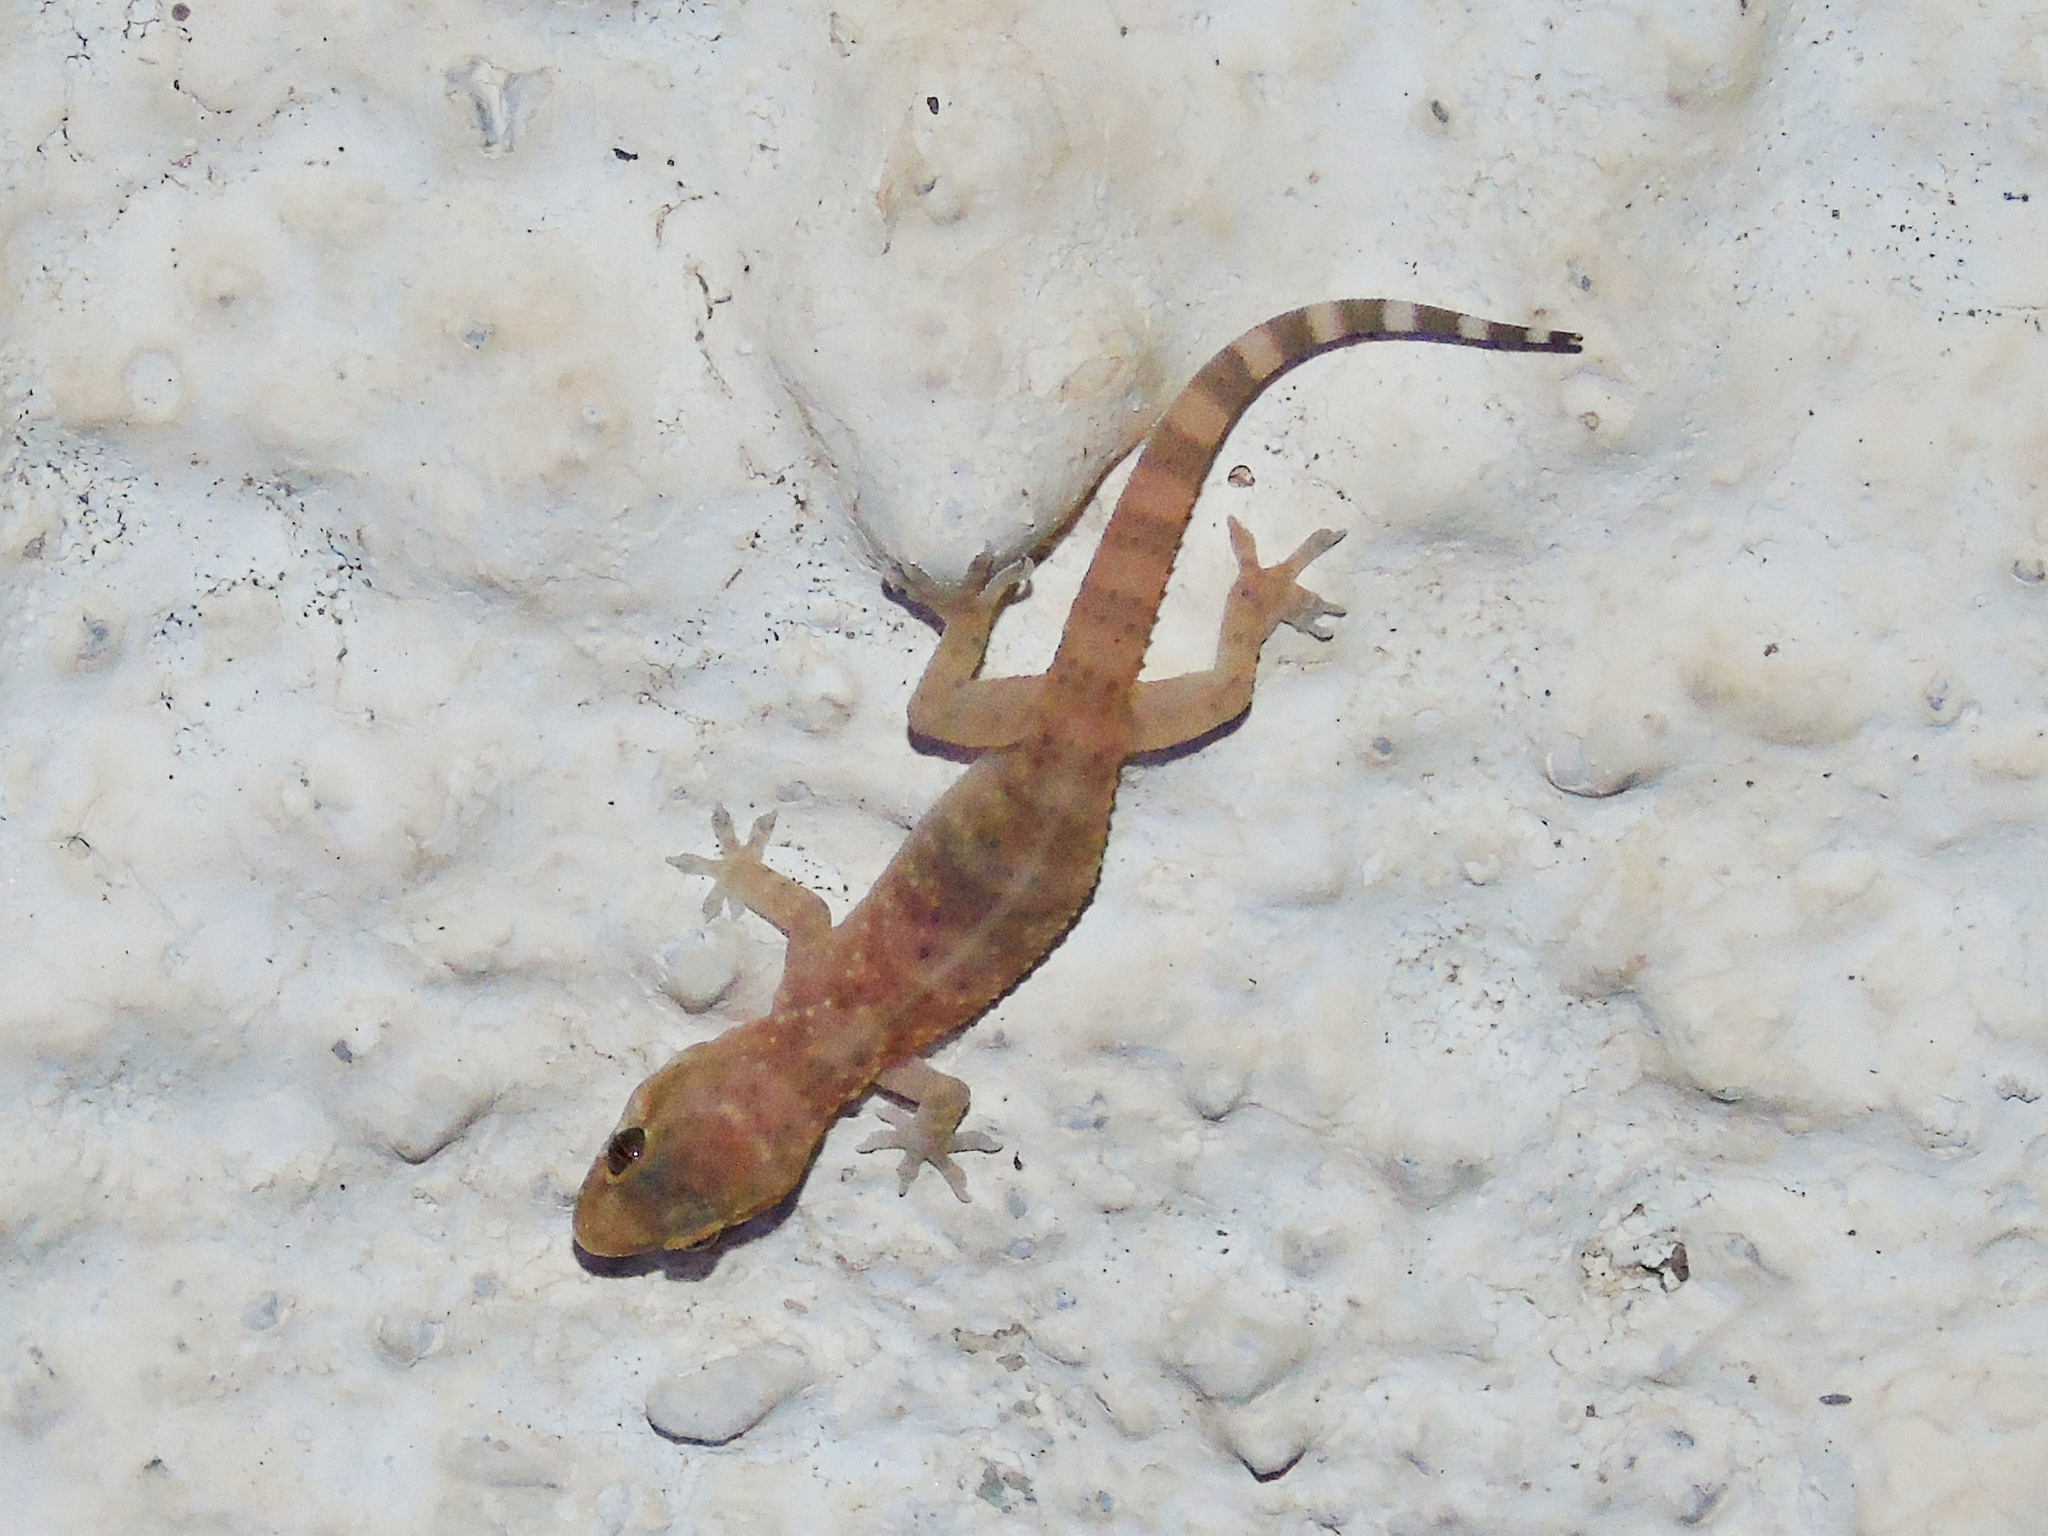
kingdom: Animalia
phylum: Chordata
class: Squamata
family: Gekkonidae
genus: Hemidactylus
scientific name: Hemidactylus turcicus
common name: Turkish gecko
